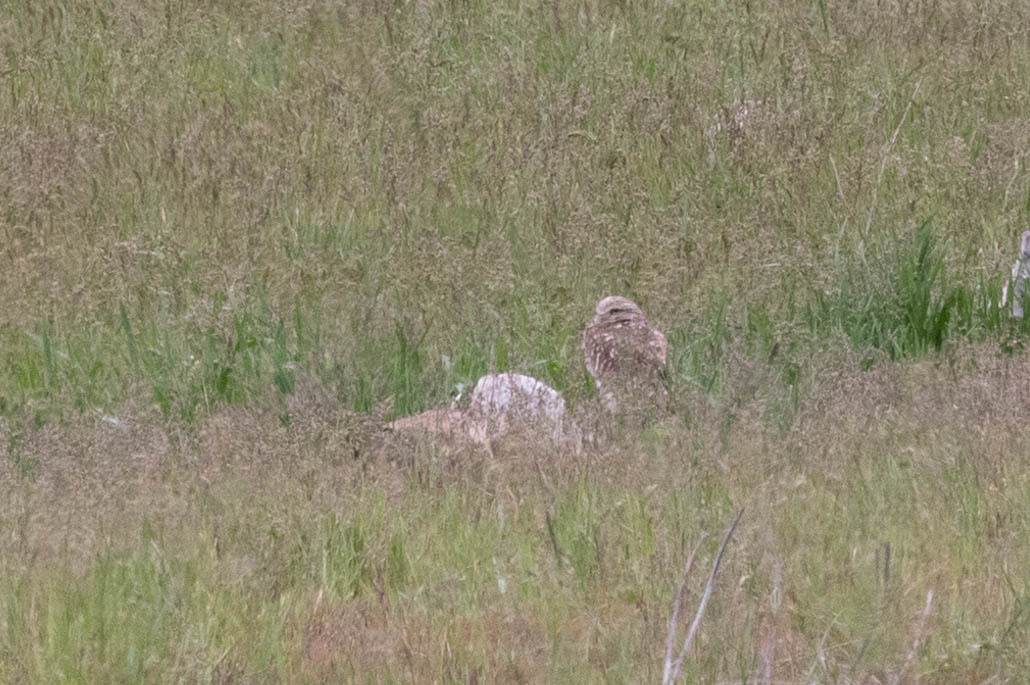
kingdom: Animalia
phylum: Chordata
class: Aves
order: Strigiformes
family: Strigidae
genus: Athene
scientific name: Athene cunicularia
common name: Burrowing owl
